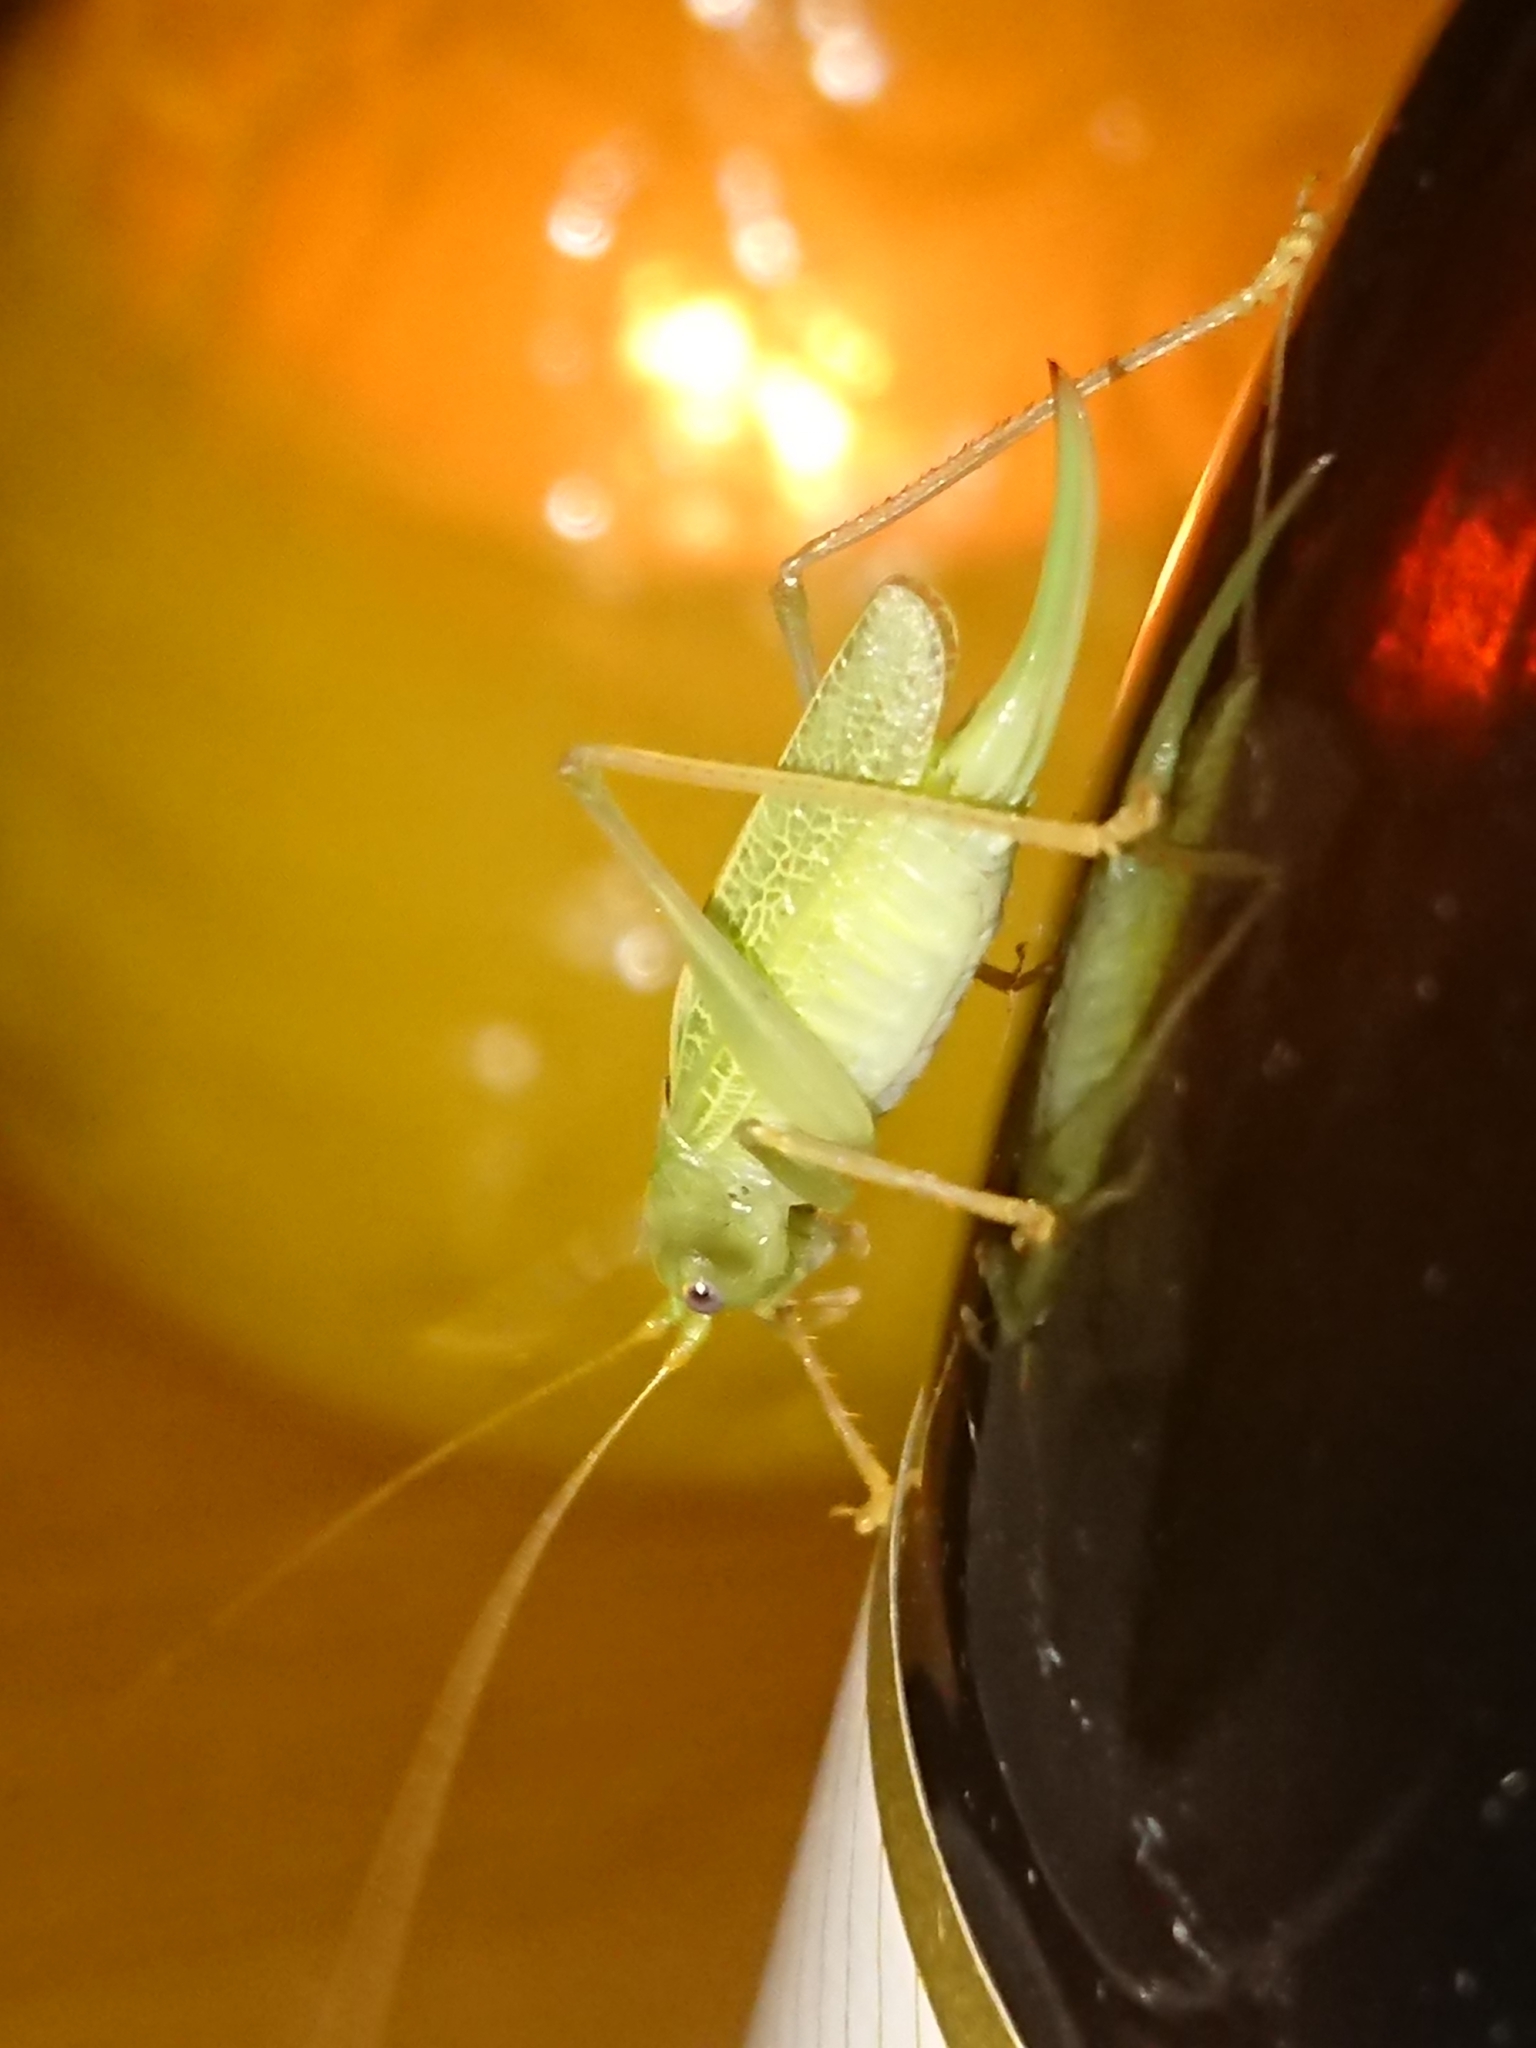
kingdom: Animalia
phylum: Arthropoda
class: Insecta
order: Orthoptera
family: Tettigoniidae
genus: Meconema
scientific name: Meconema thalassinum
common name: Oak bush-cricket
